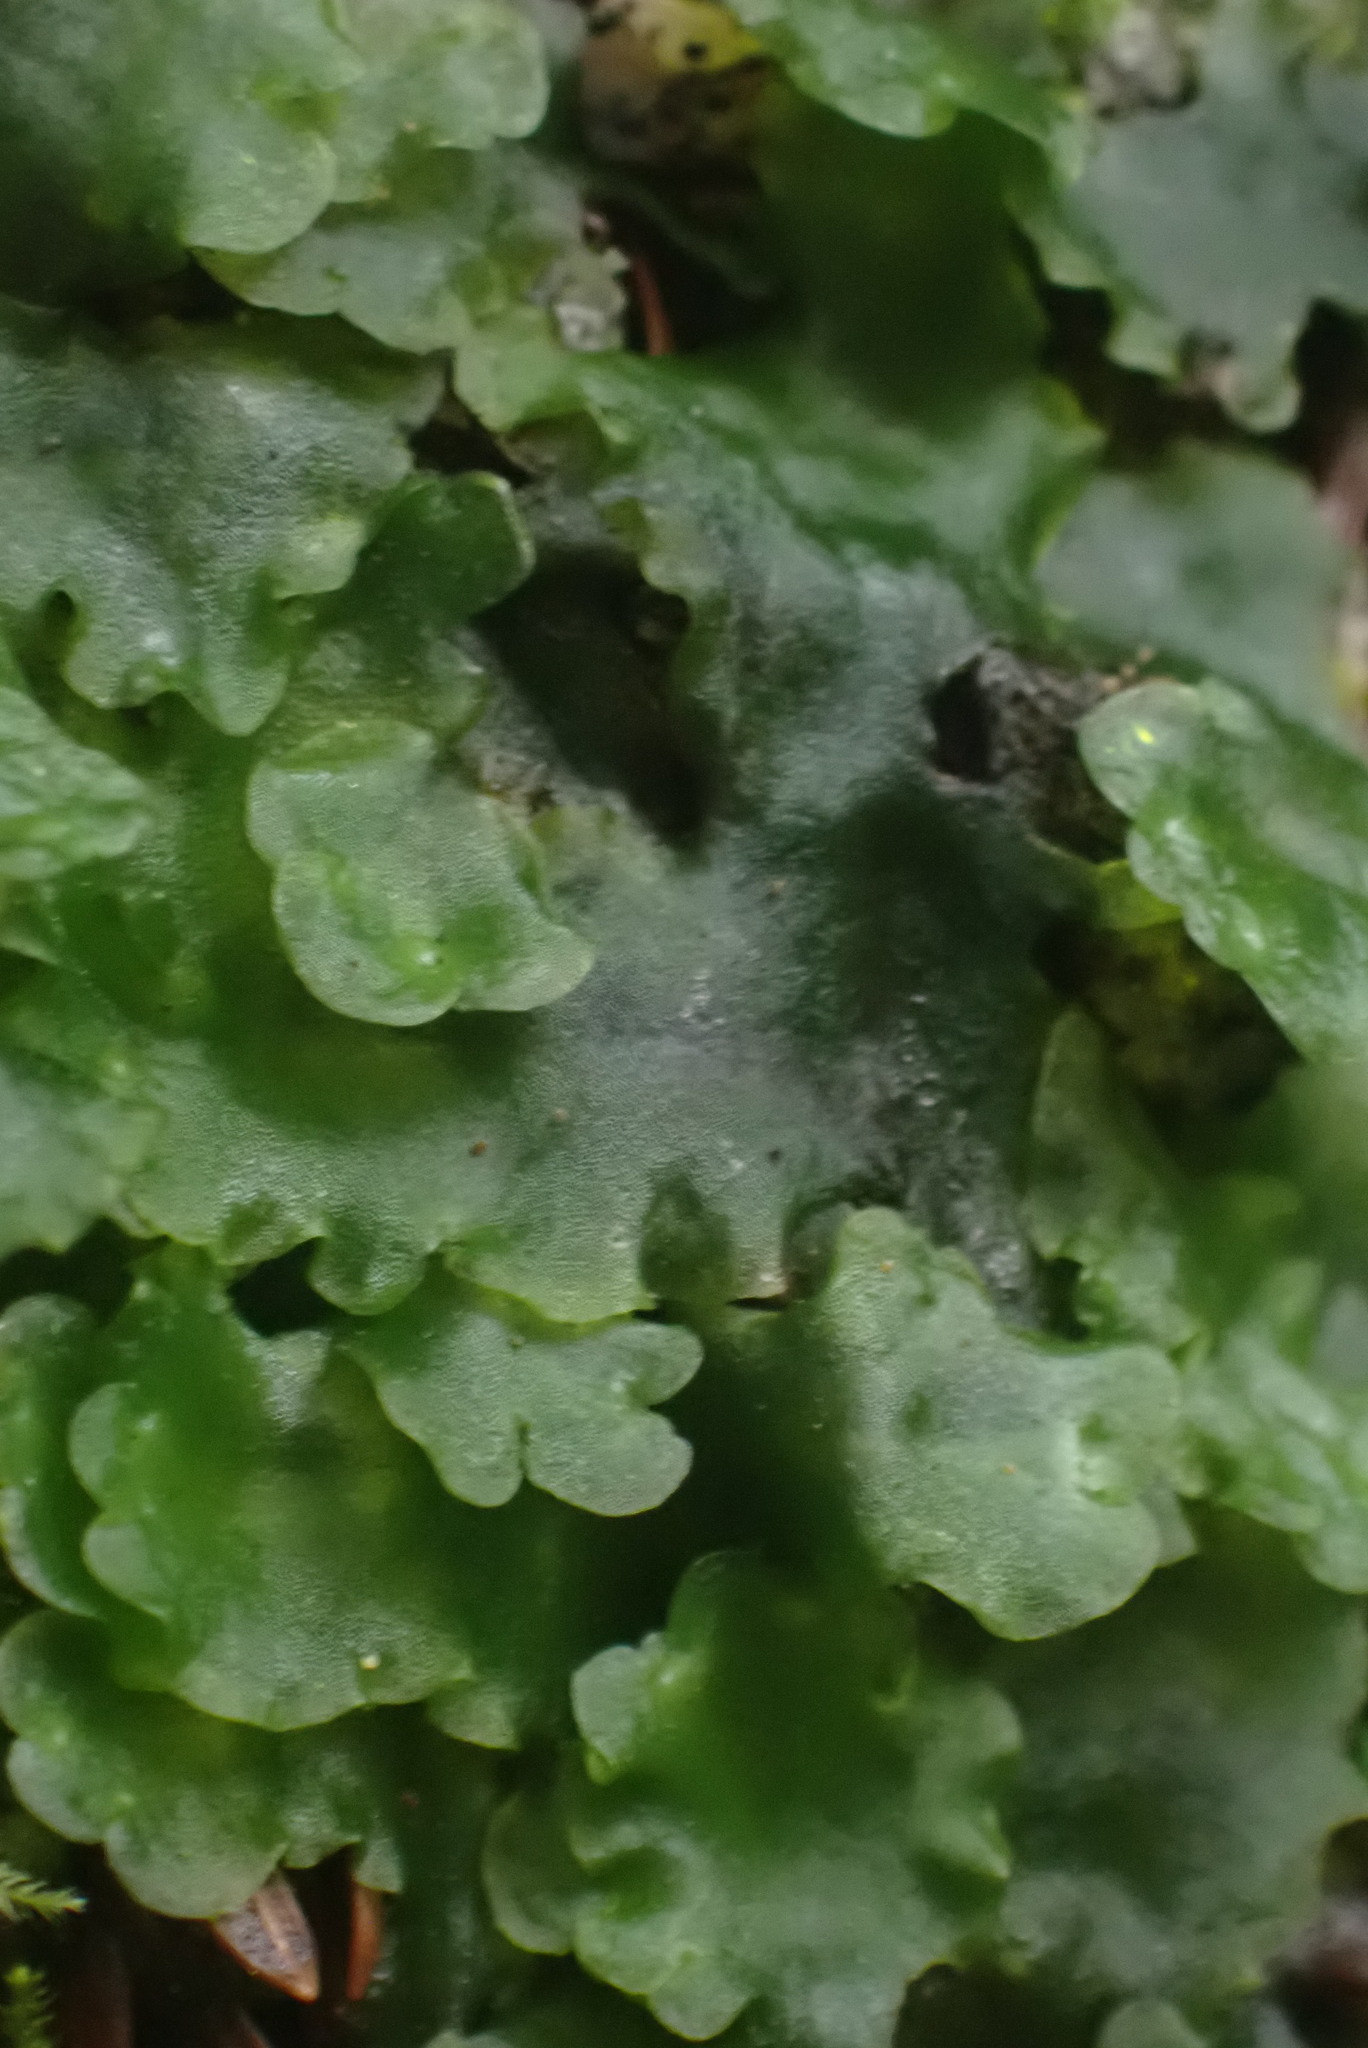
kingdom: Plantae
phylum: Marchantiophyta
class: Jungermanniopsida
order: Pelliales
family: Pelliaceae
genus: Pellia
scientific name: Pellia neesiana
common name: Nees  pellia
